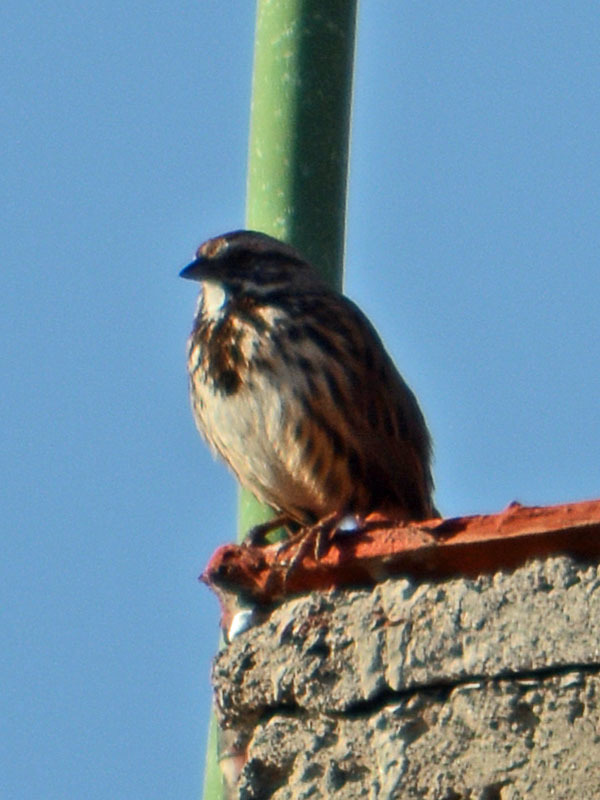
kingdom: Animalia
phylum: Chordata
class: Aves
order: Passeriformes
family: Passerellidae
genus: Melospiza
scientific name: Melospiza melodia
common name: Song sparrow
